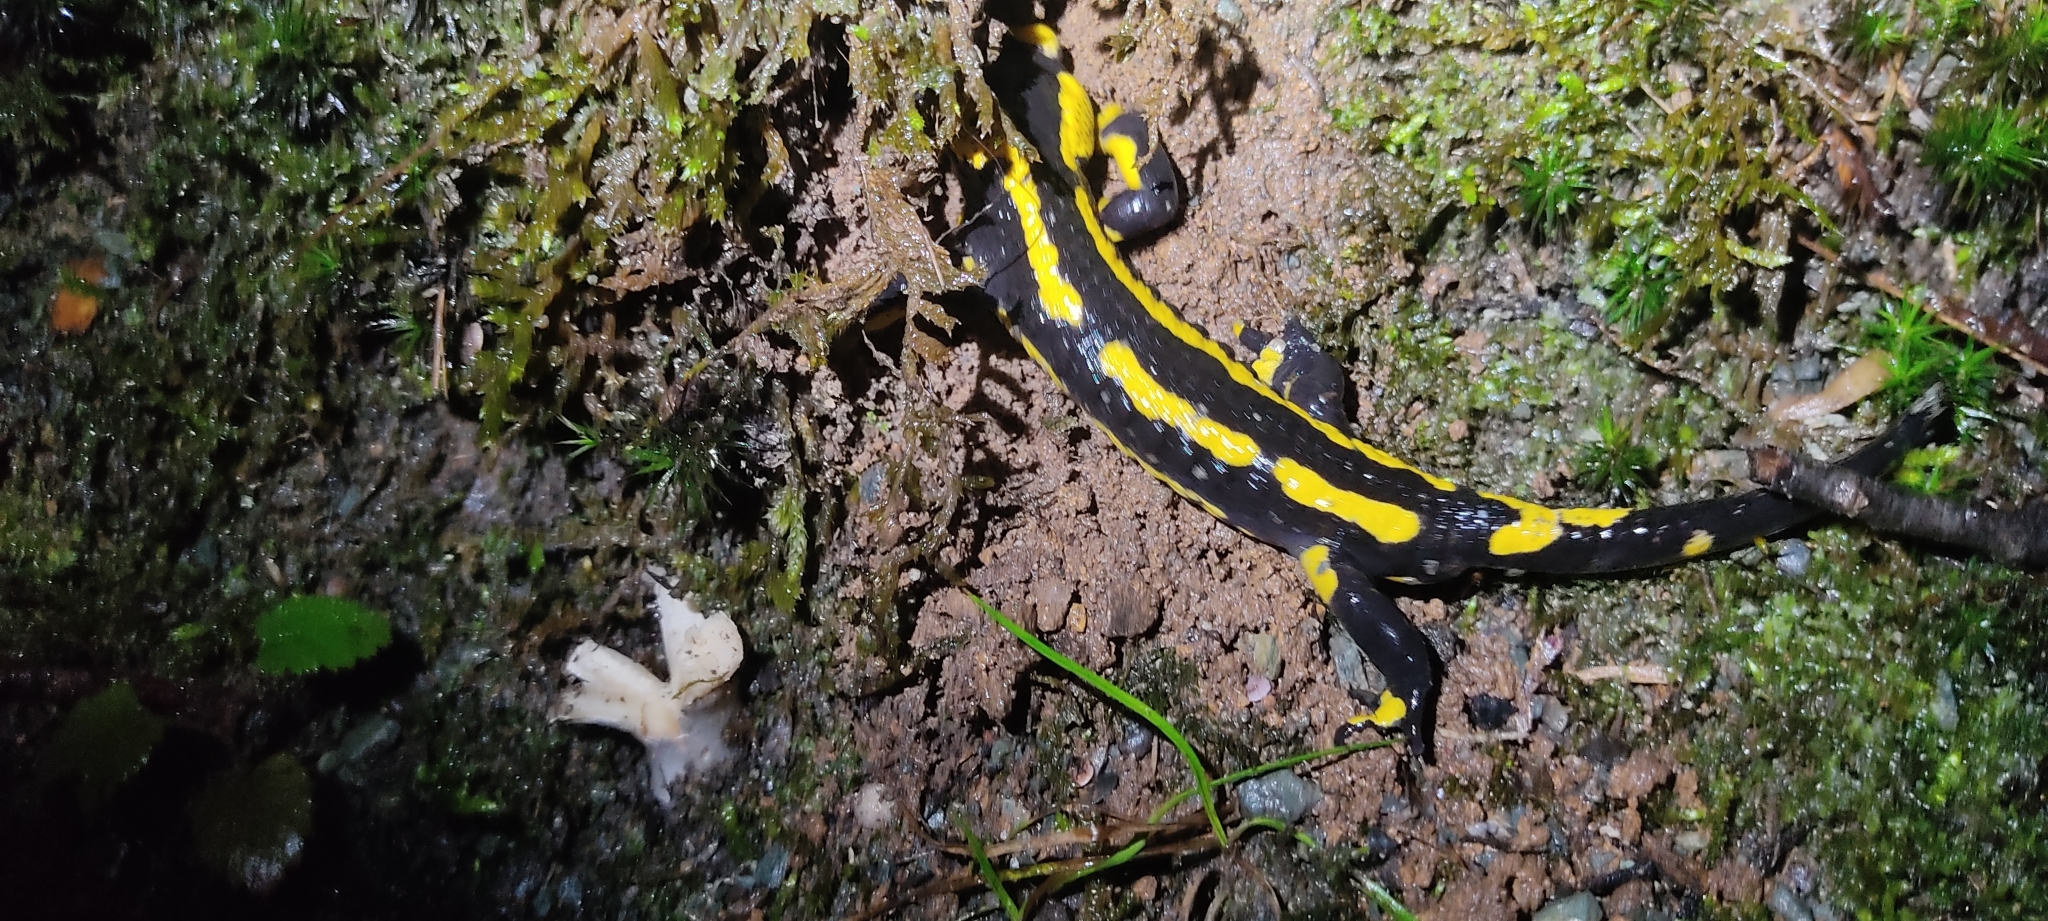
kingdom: Animalia
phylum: Chordata
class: Amphibia
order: Caudata
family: Salamandridae
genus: Salamandra
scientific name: Salamandra salamandra
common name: Fire salamander
